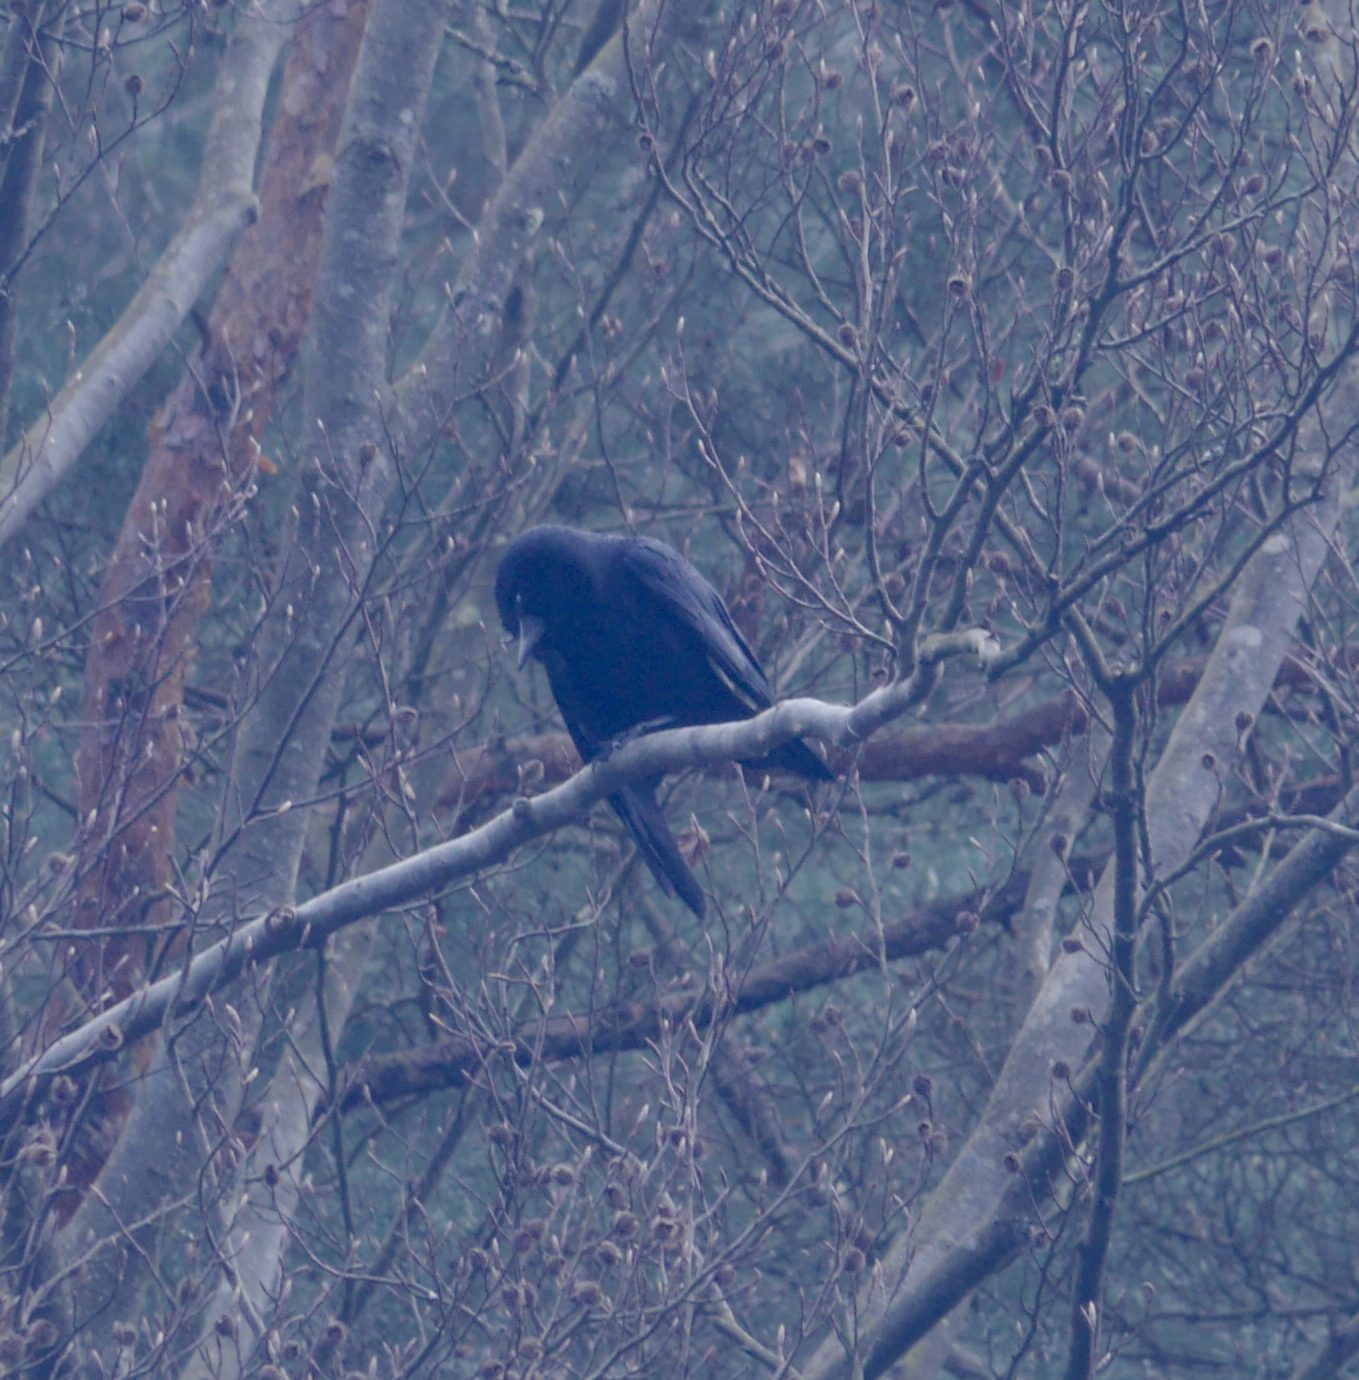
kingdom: Animalia
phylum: Chordata
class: Aves
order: Passeriformes
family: Corvidae
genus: Corvus
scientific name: Corvus corone
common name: Carrion crow
